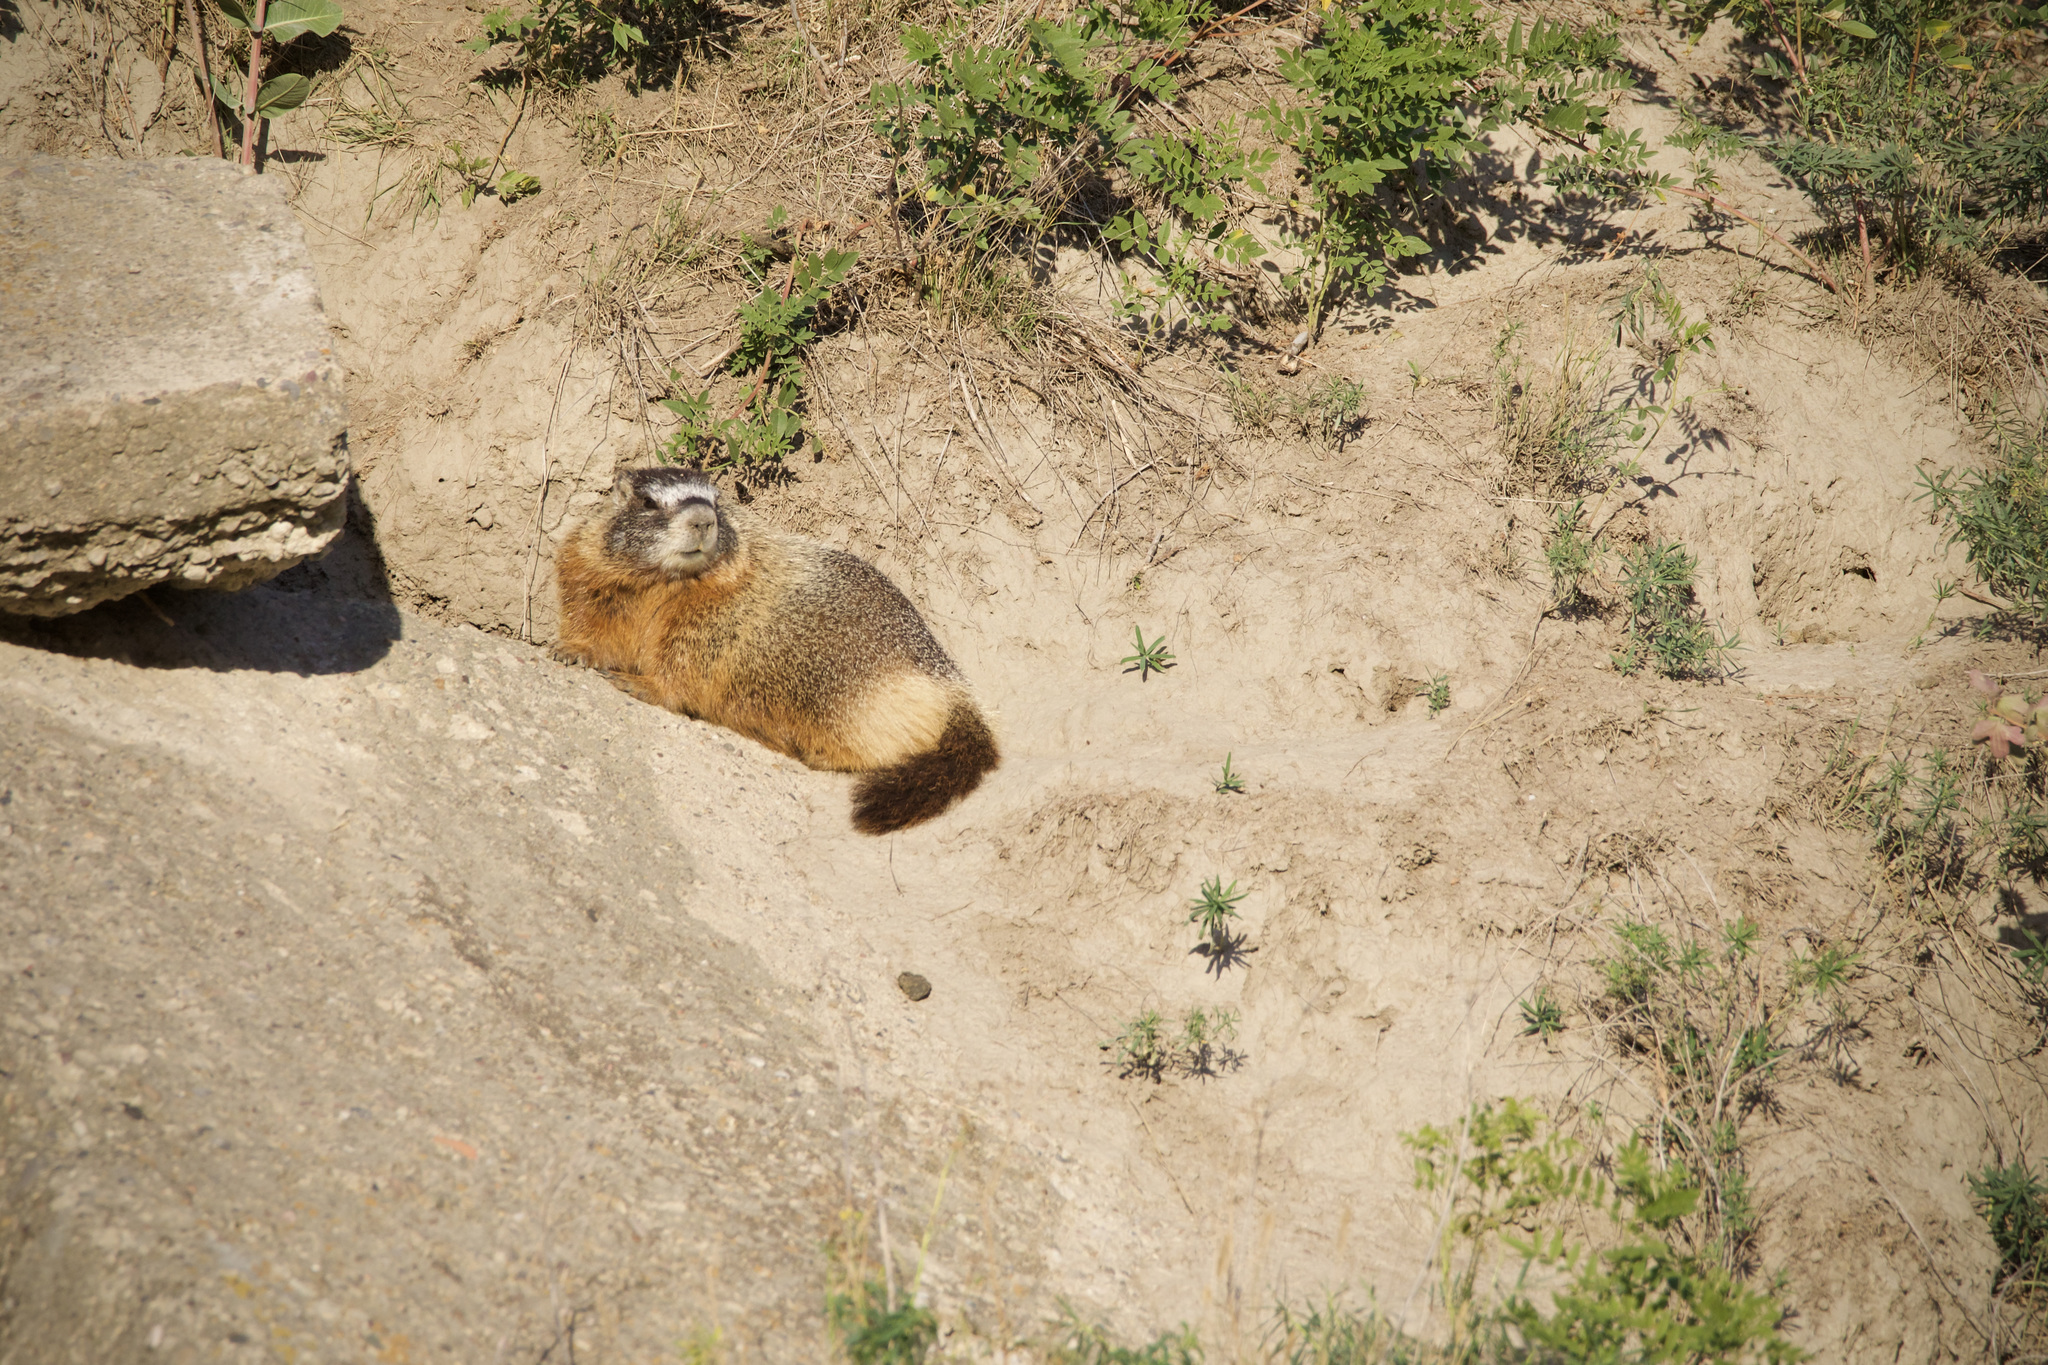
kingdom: Animalia
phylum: Chordata
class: Mammalia
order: Rodentia
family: Sciuridae
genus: Marmota
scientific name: Marmota flaviventris
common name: Yellow-bellied marmot
